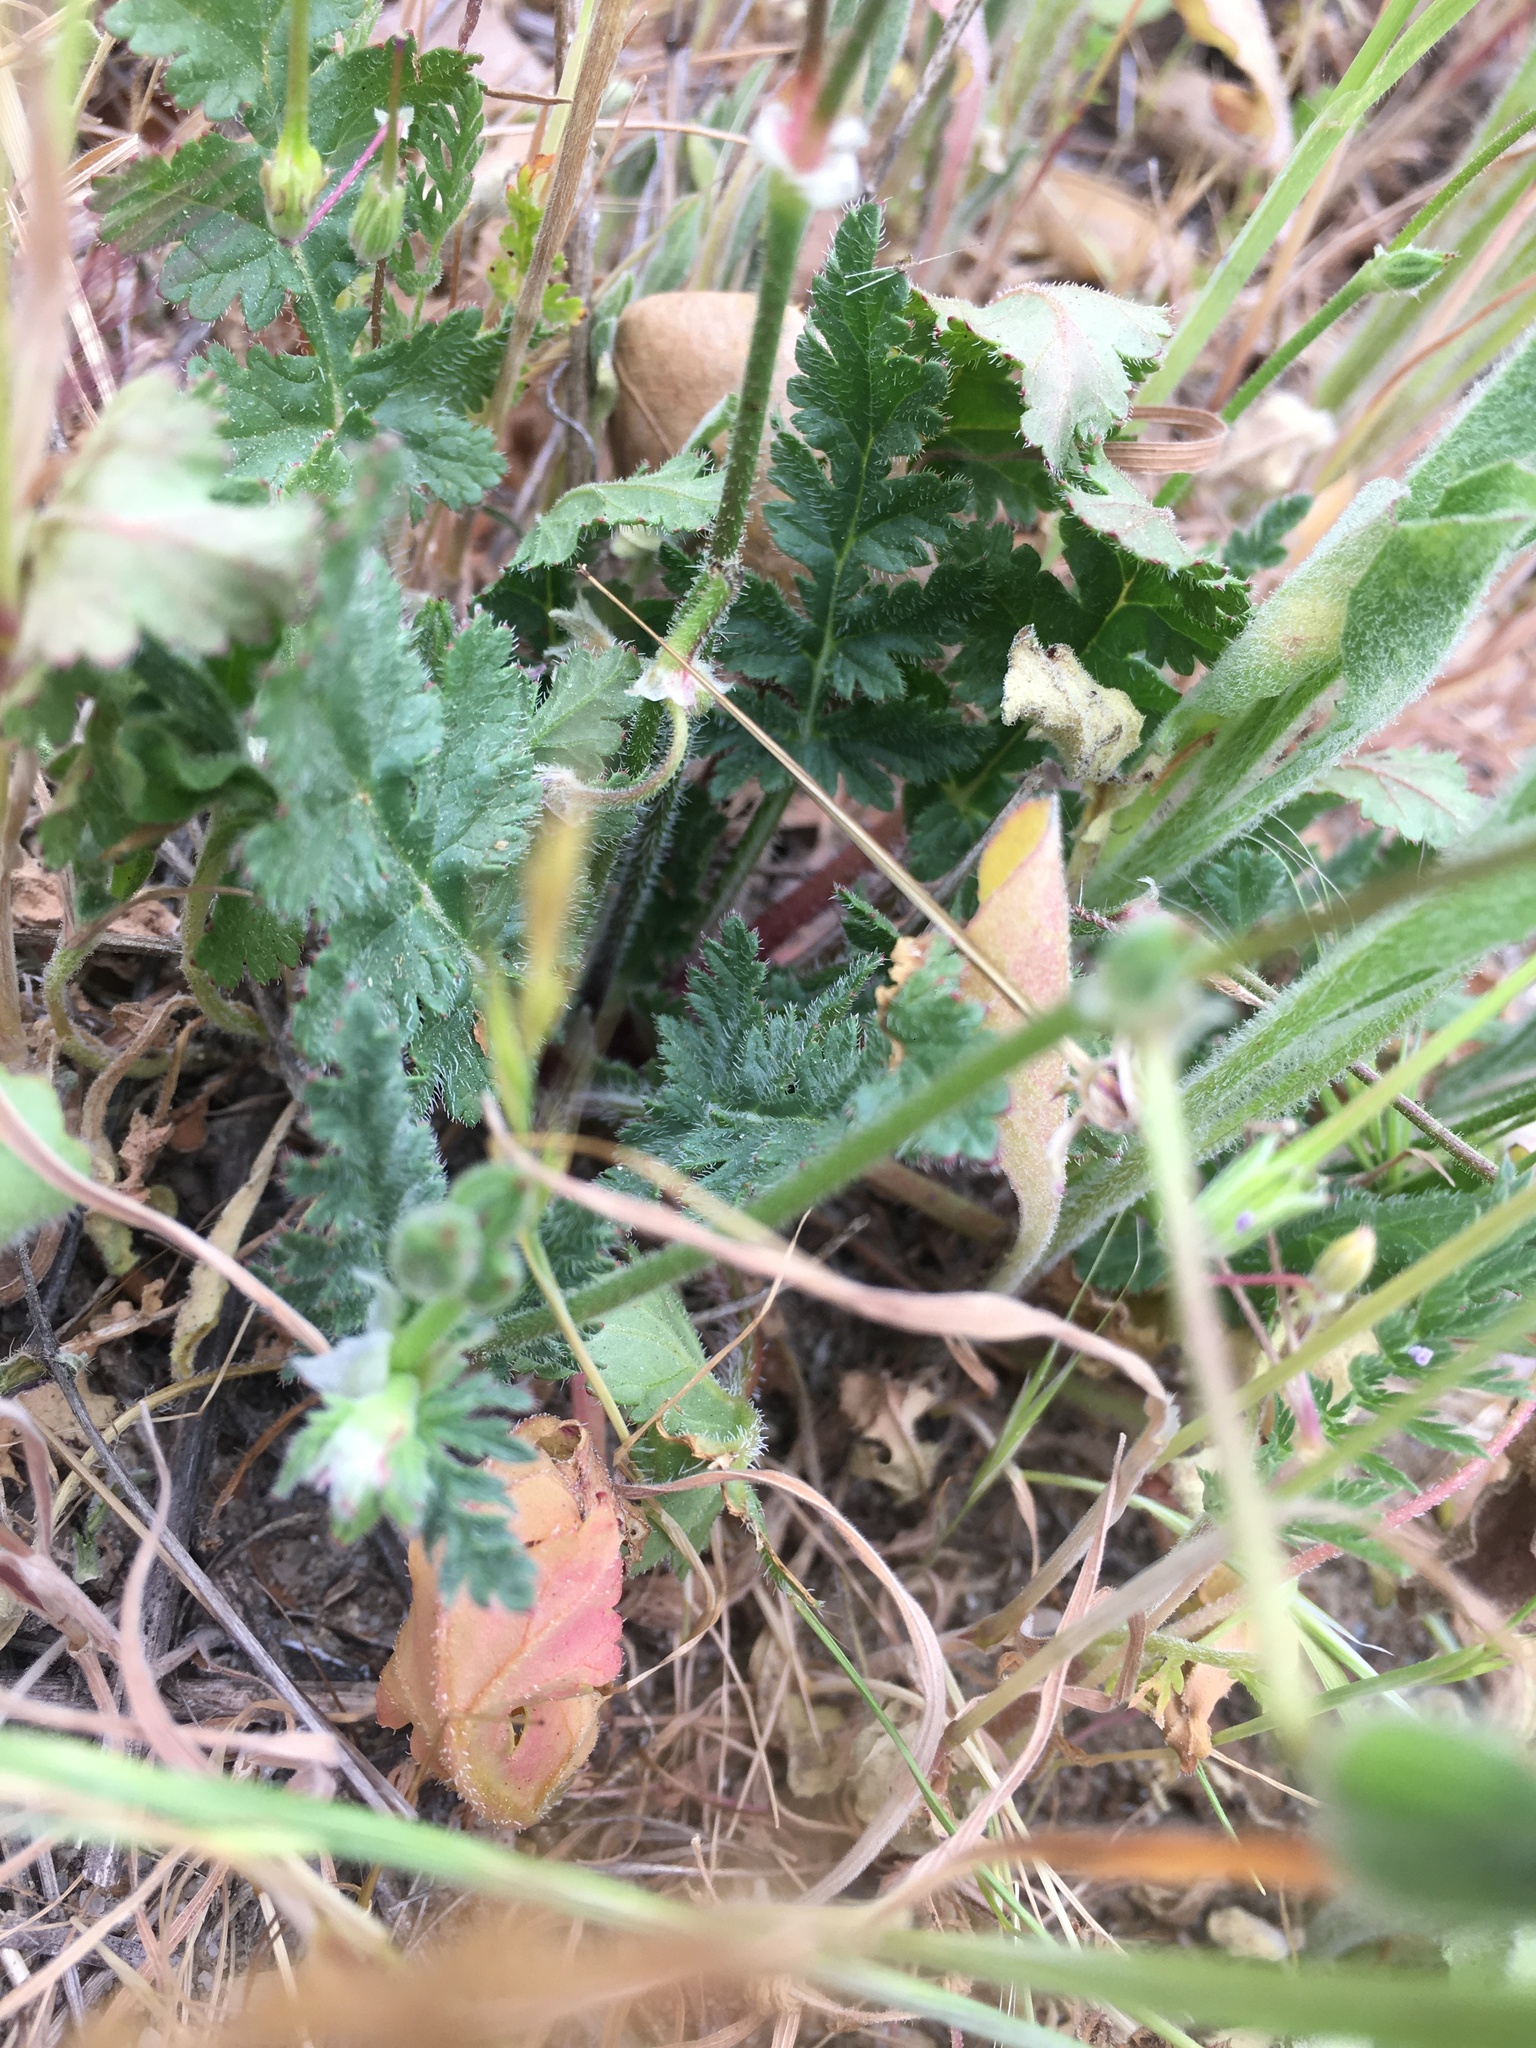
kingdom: Plantae
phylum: Tracheophyta
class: Magnoliopsida
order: Geraniales
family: Geraniaceae
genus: Erodium
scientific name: Erodium botrys
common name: Mediterranean stork's-bill
